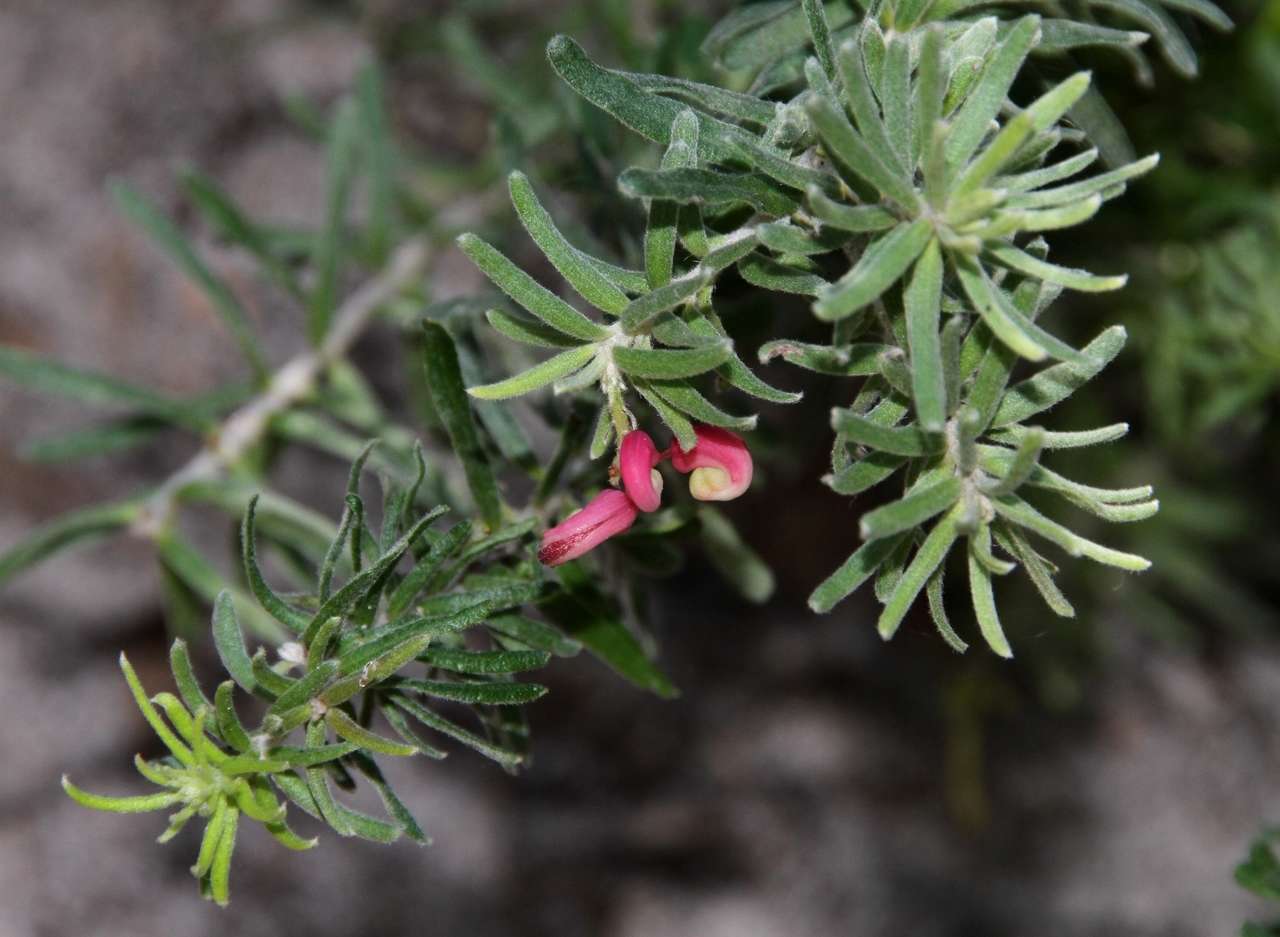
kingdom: Plantae
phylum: Tracheophyta
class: Magnoliopsida
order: Proteales
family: Proteaceae
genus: Grevillea
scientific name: Grevillea lanigera
